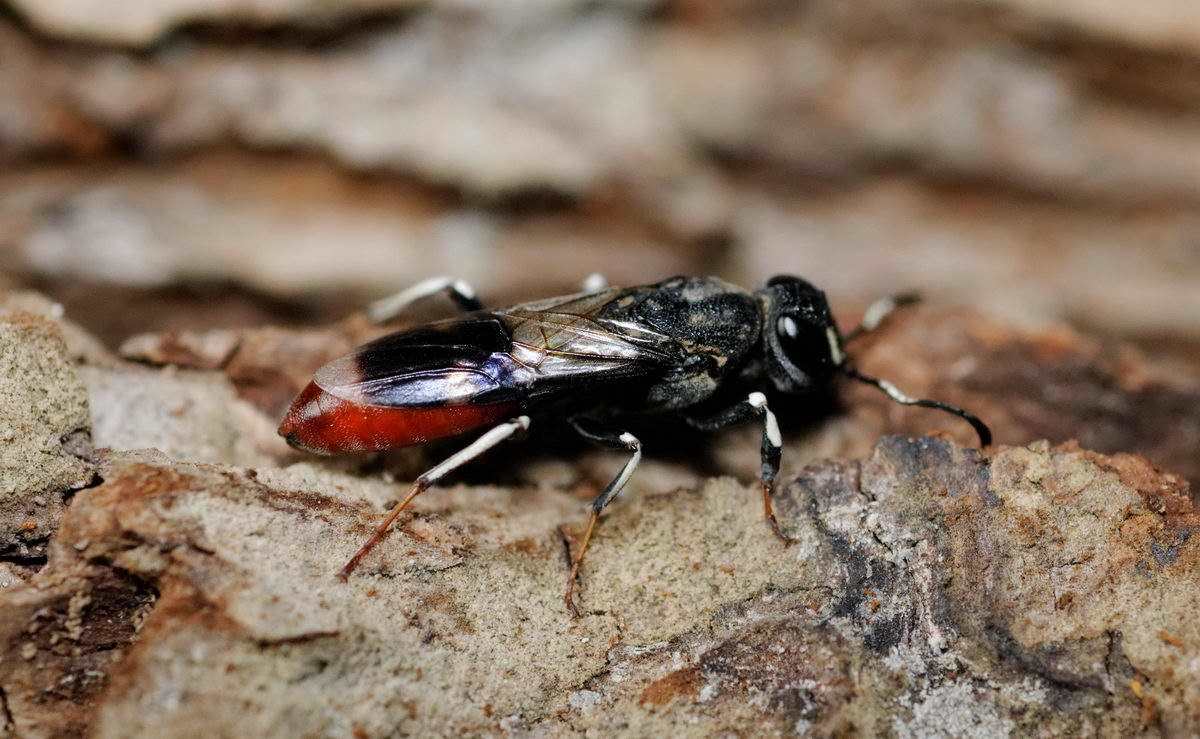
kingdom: Animalia
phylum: Arthropoda
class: Insecta
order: Hymenoptera
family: Orussusidae
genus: Orussus
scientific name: Orussus abietinus
